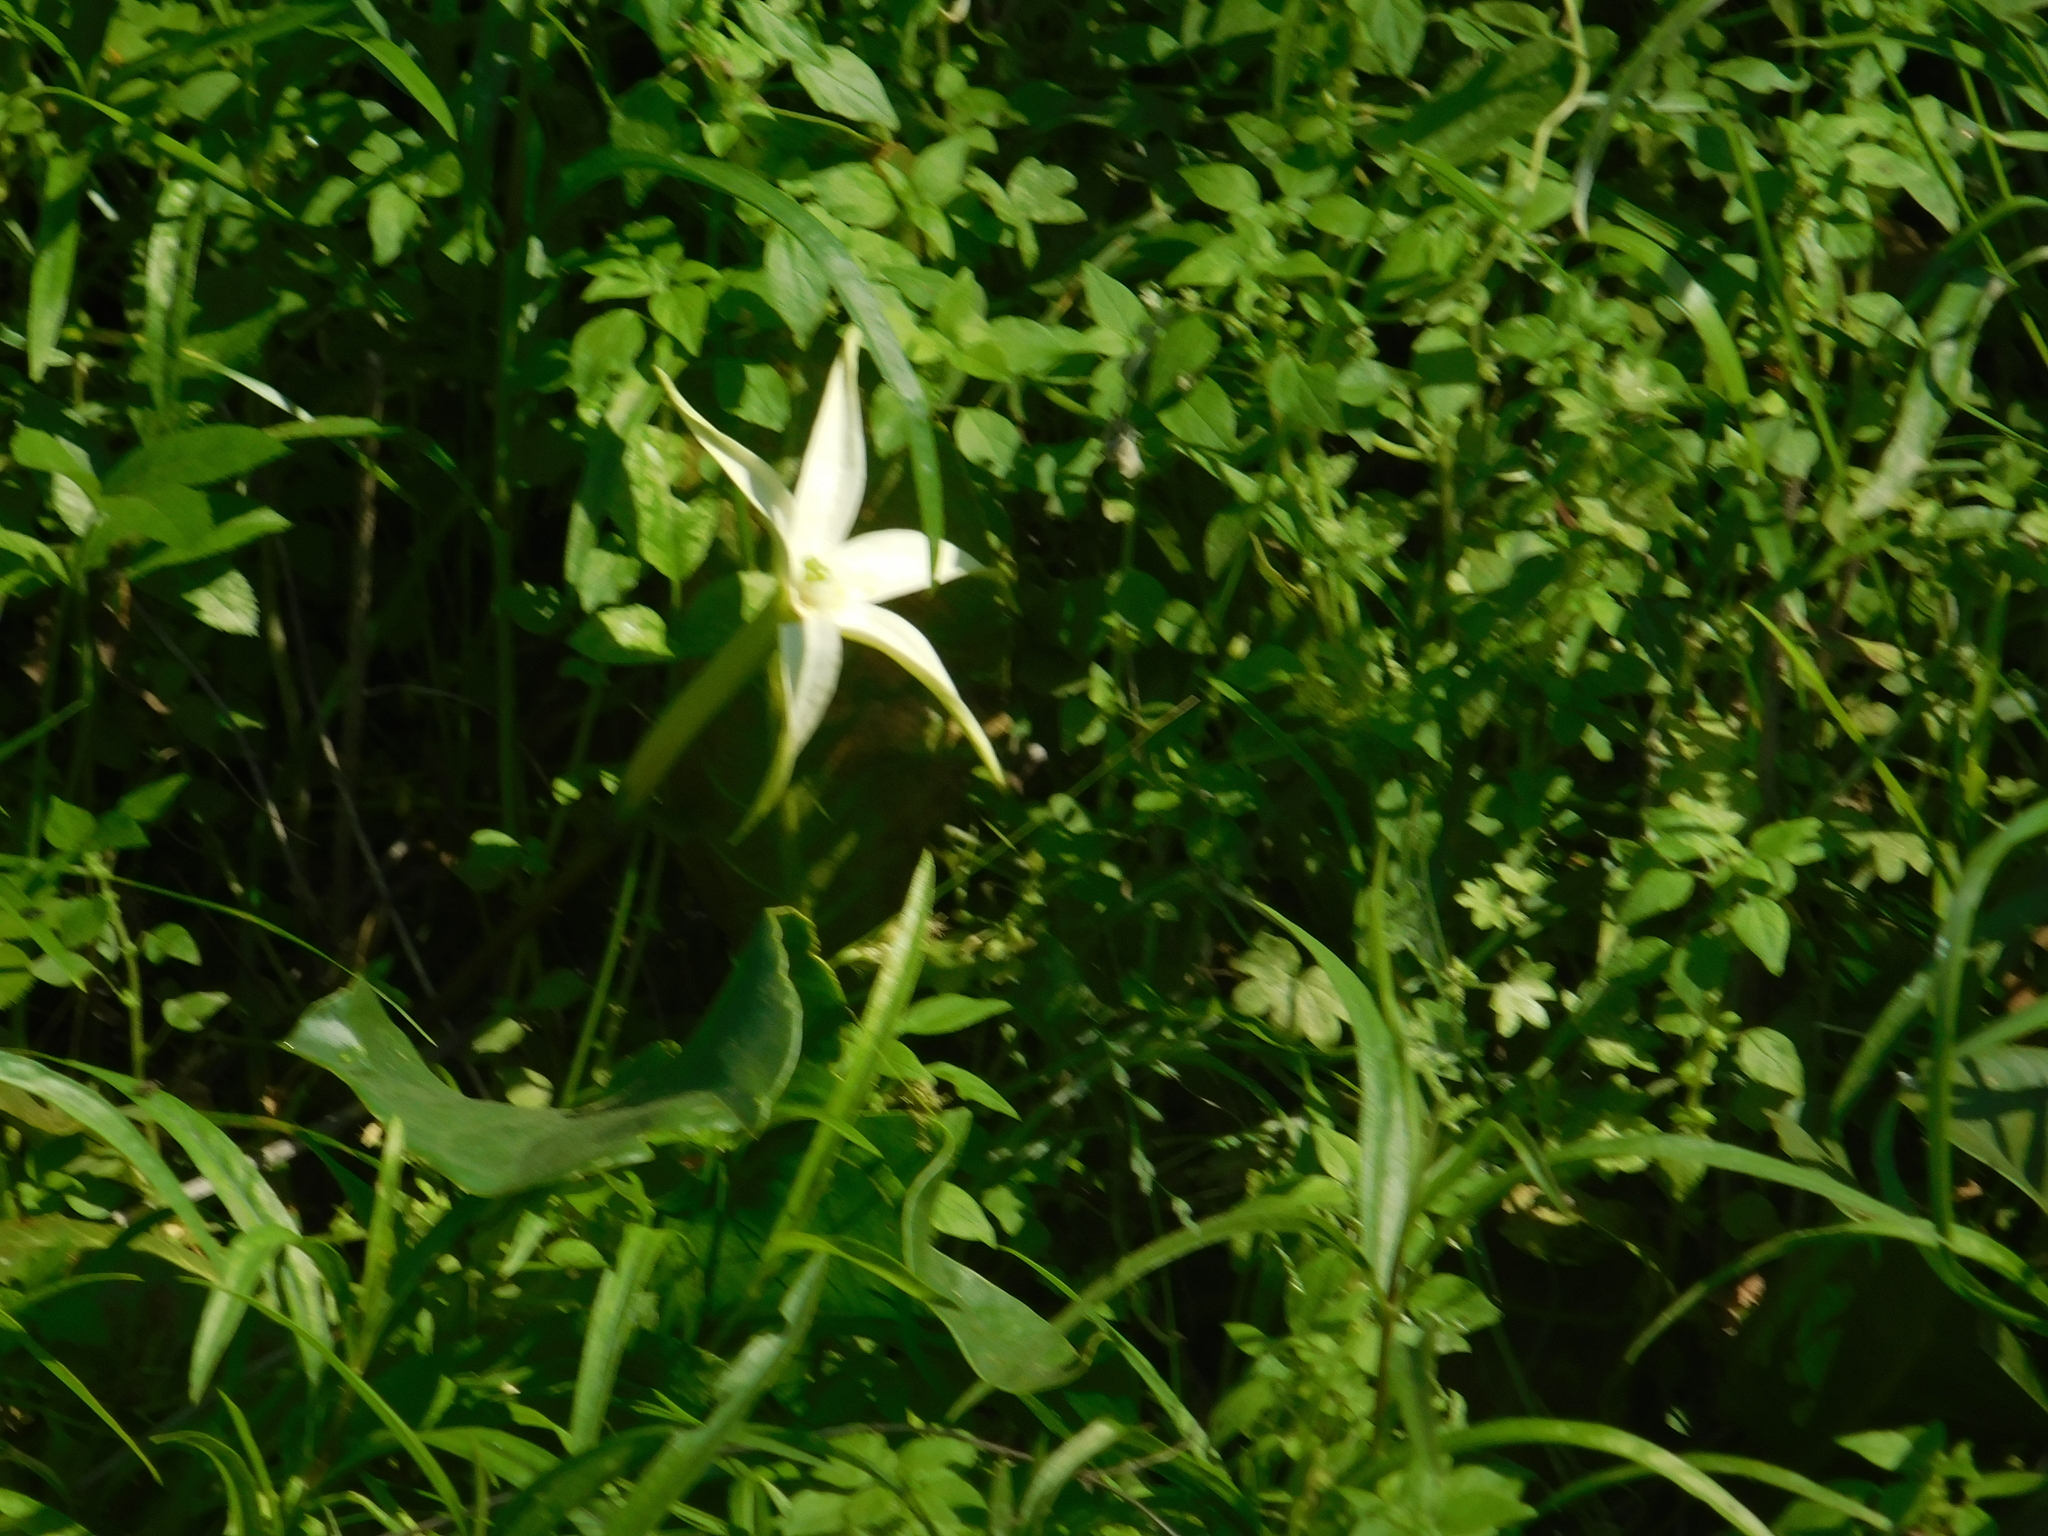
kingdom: Plantae
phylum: Tracheophyta
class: Magnoliopsida
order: Solanales
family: Solanaceae
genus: Jaborosa
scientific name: Jaborosa integrifolia
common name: Springblossom
